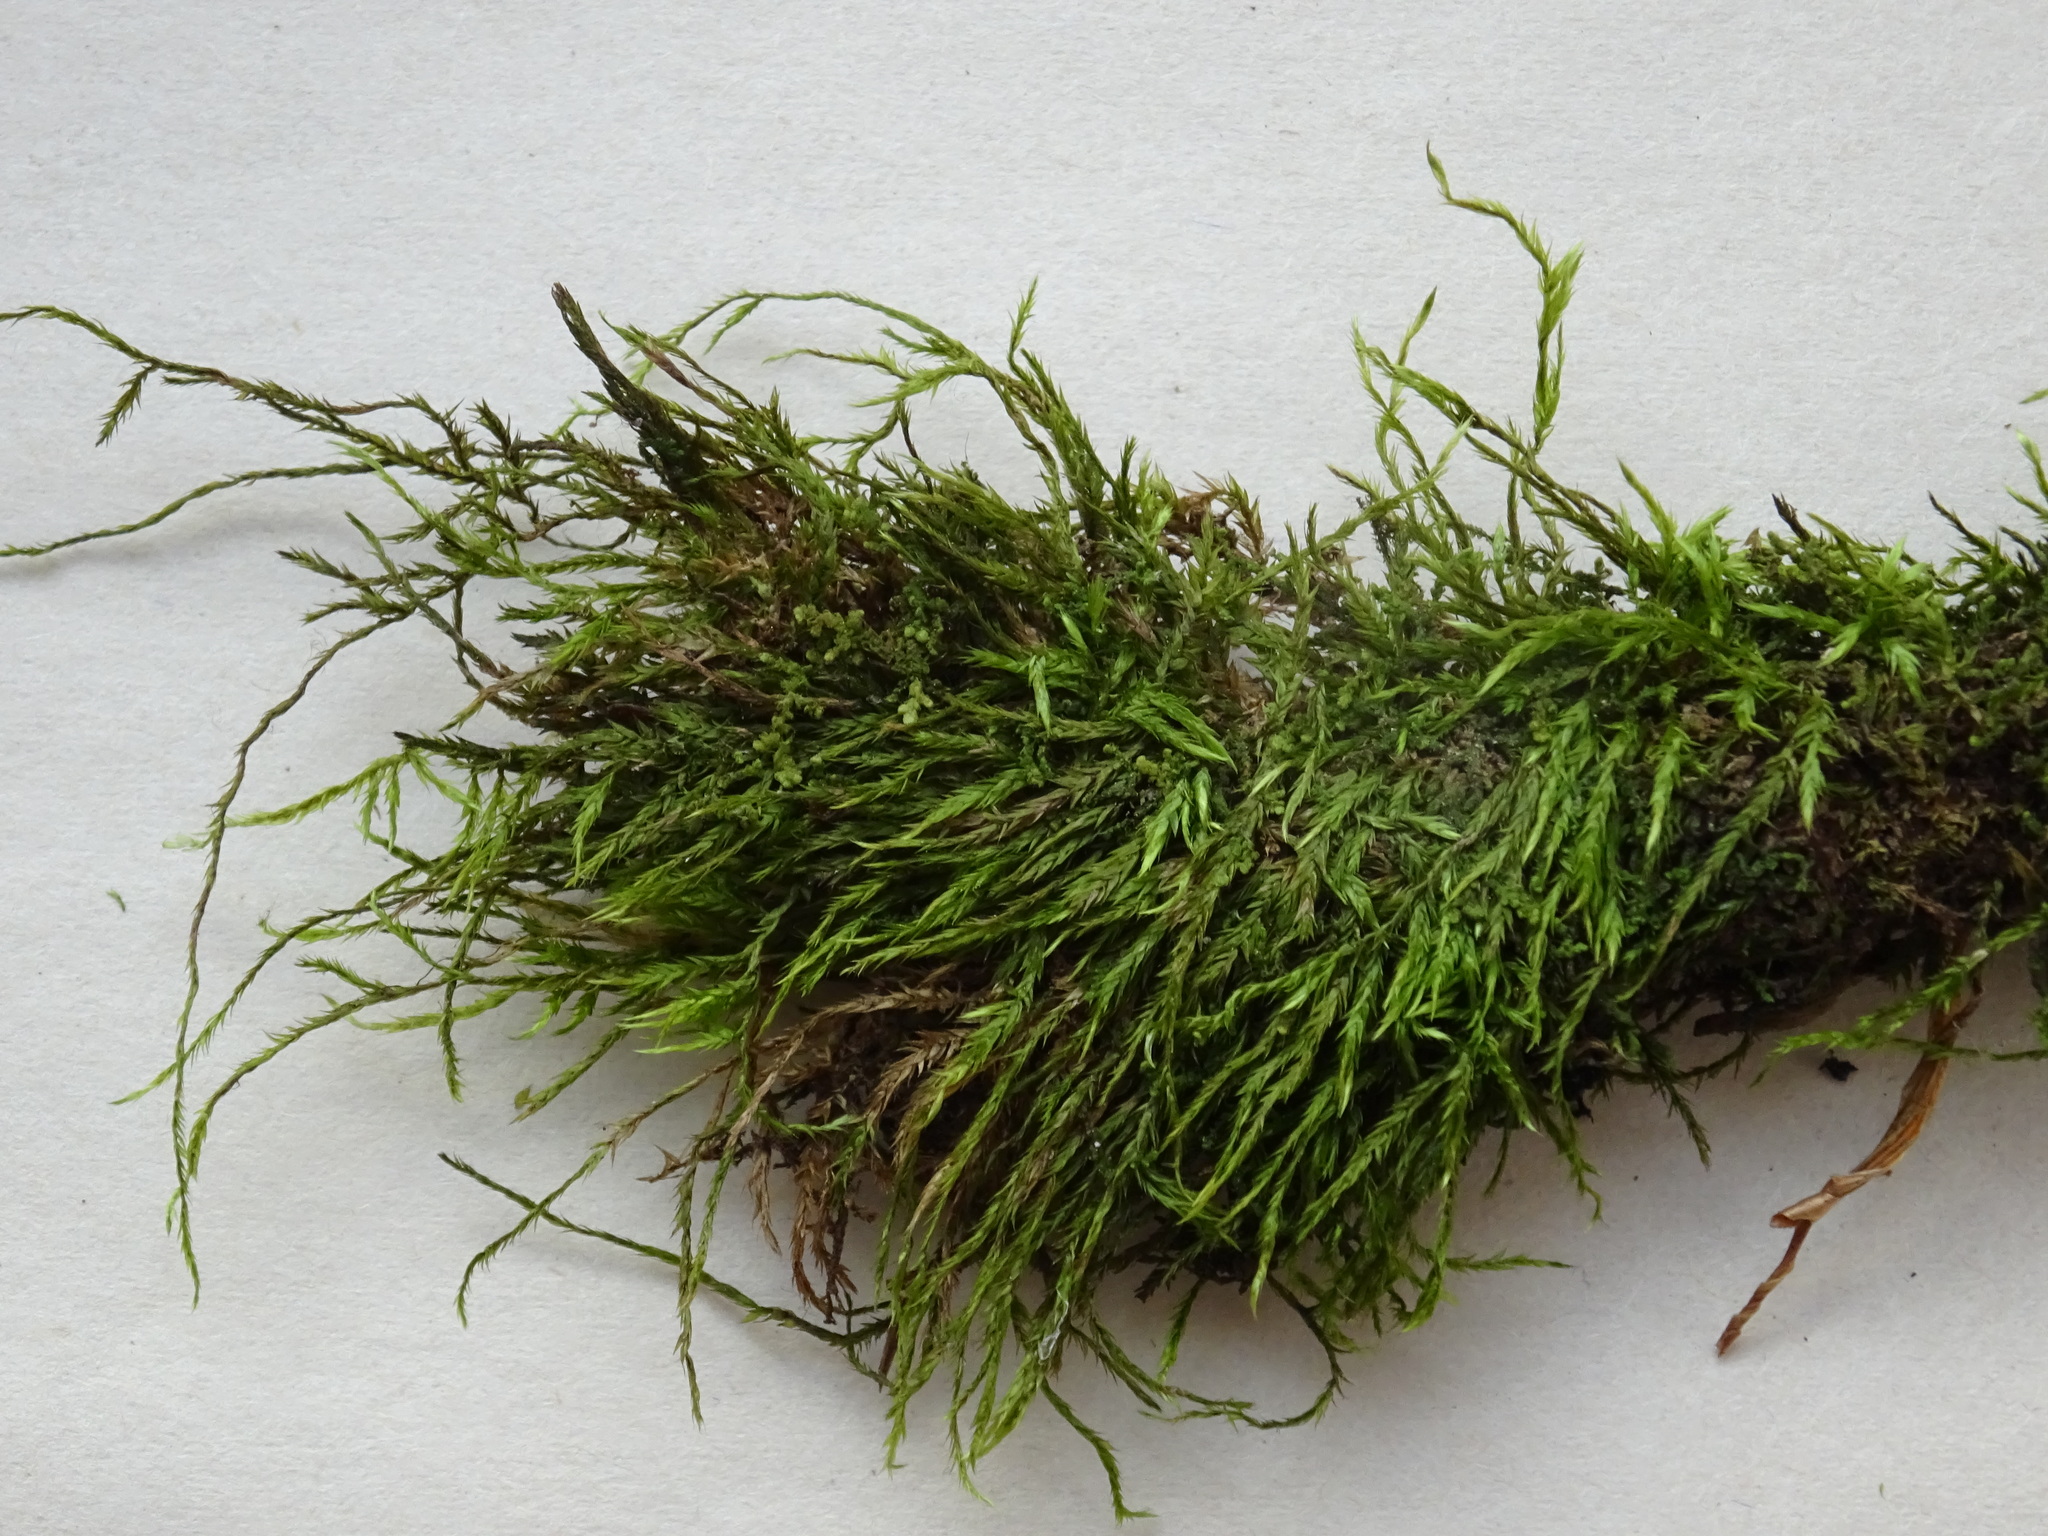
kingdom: Plantae
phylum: Bryophyta
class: Bryopsida
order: Hypnales
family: Amblystegiaceae
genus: Amblystegium
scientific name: Amblystegium serpens
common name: Jurkatzka's feather moss
